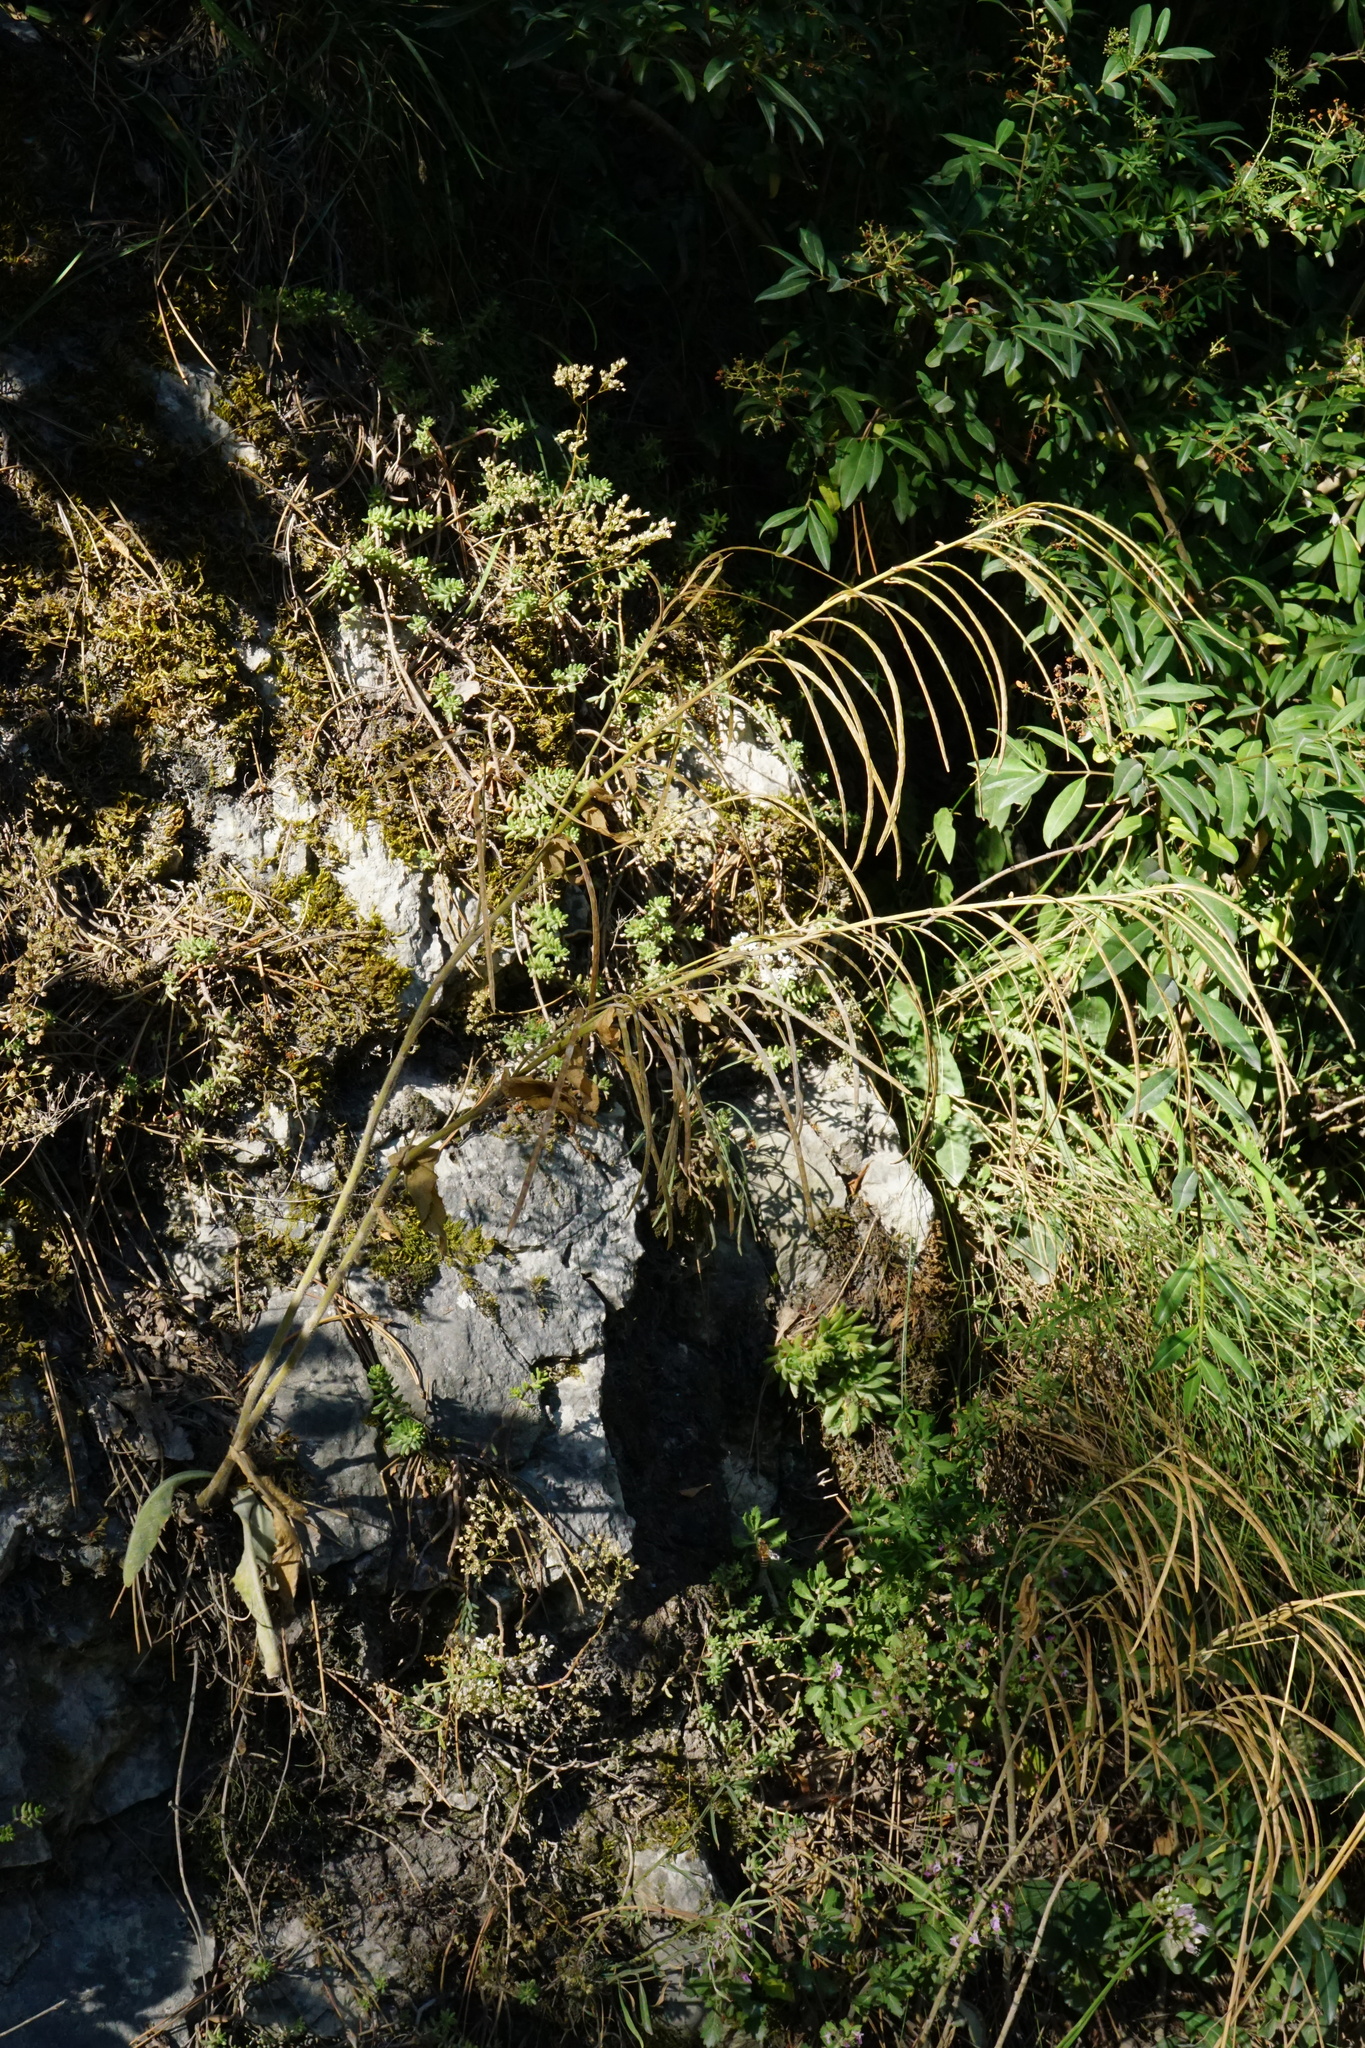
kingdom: Plantae
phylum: Tracheophyta
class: Magnoliopsida
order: Brassicales
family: Brassicaceae
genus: Pseudoturritis
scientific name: Pseudoturritis turrita
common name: Tower cress
